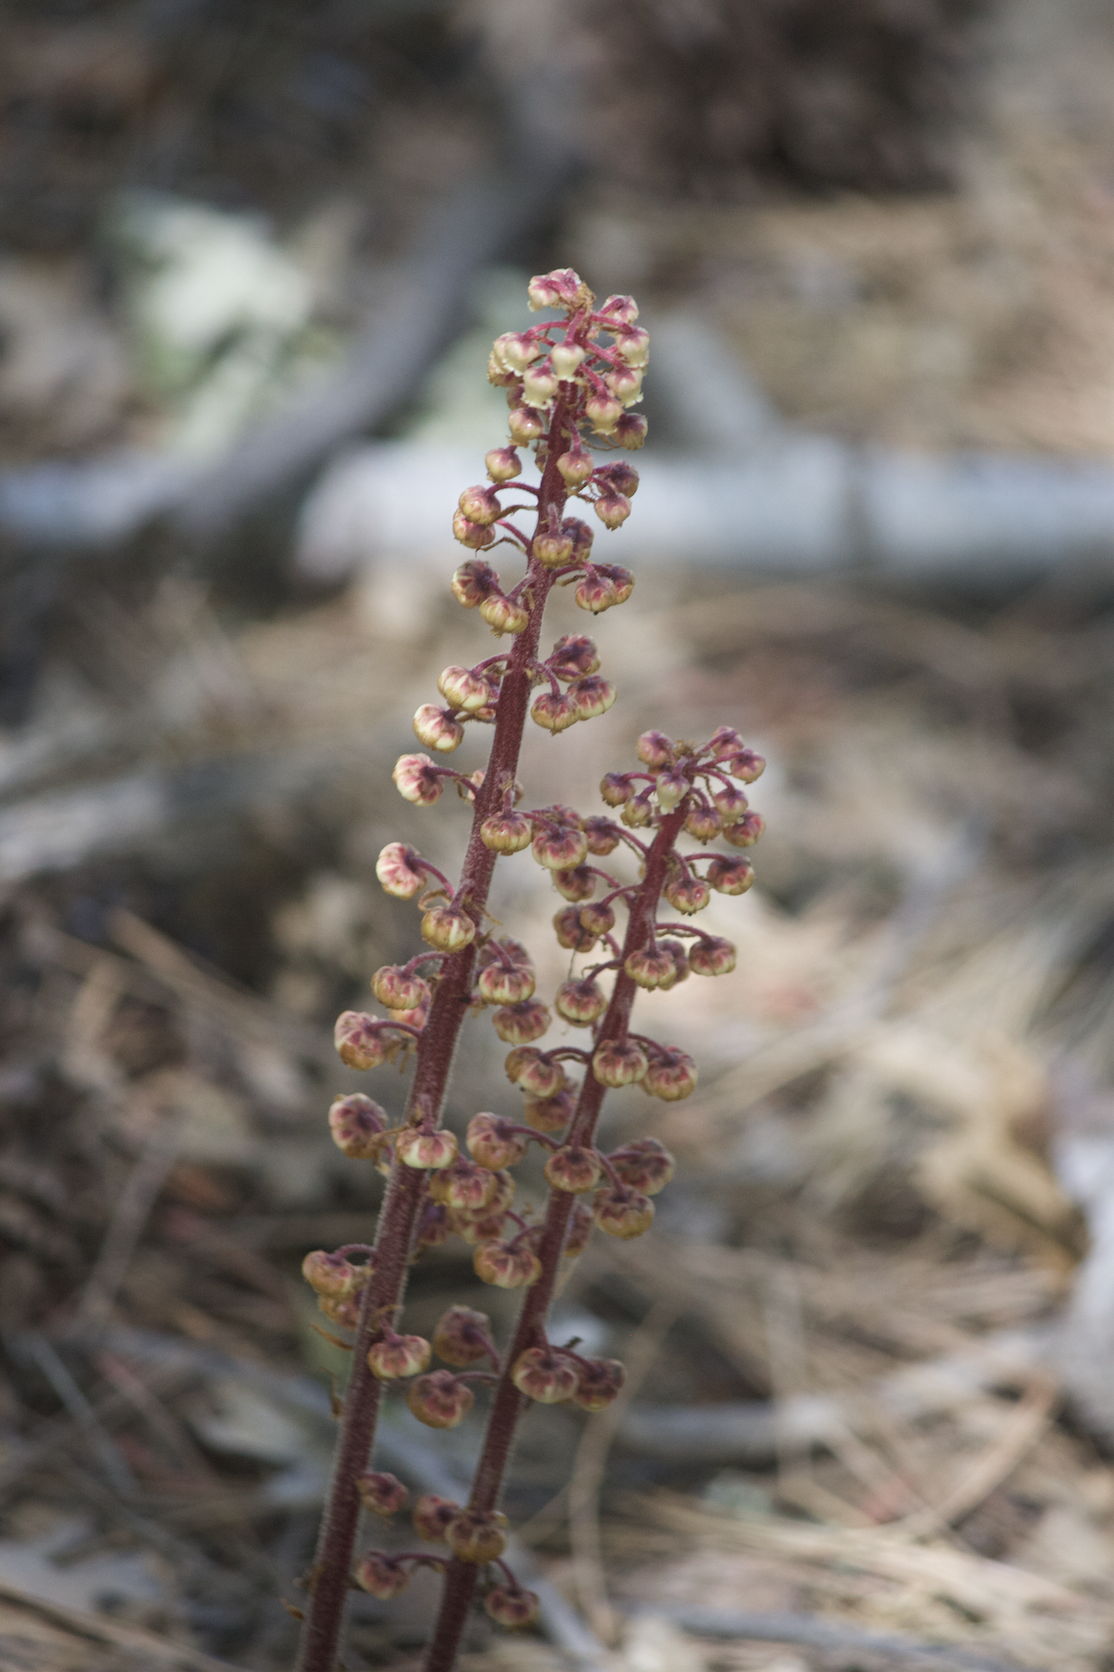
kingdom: Plantae
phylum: Tracheophyta
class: Magnoliopsida
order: Ericales
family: Ericaceae
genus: Pterospora
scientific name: Pterospora andromedea
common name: Giant bird's-nest
